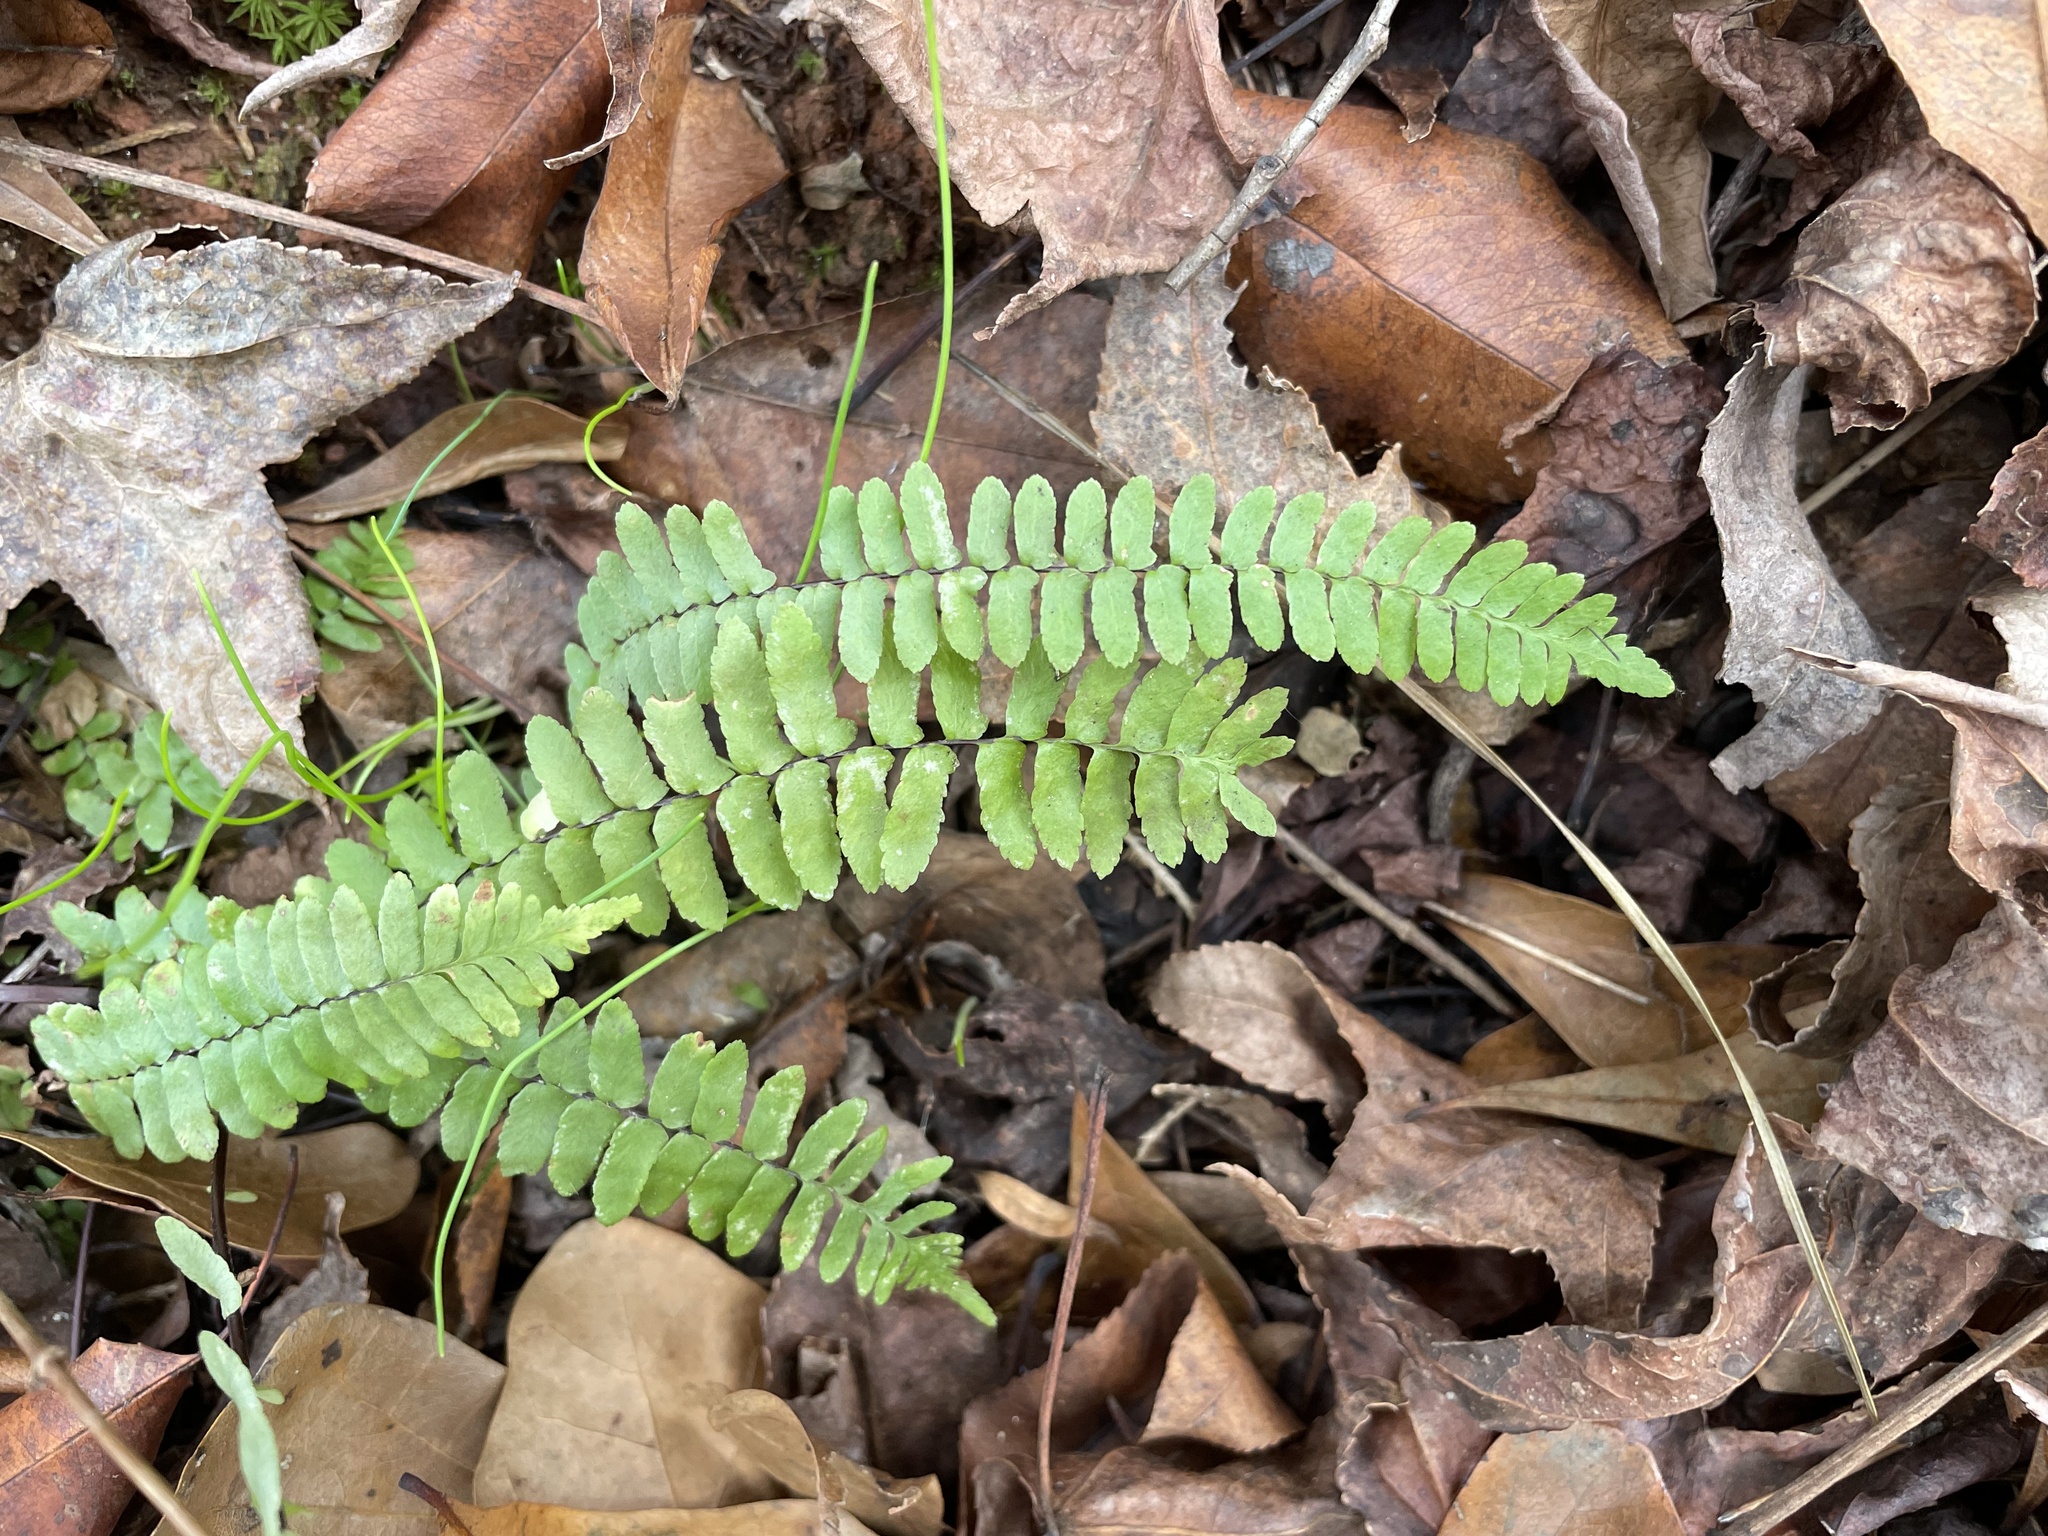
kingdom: Plantae
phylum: Tracheophyta
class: Polypodiopsida
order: Polypodiales
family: Aspleniaceae
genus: Asplenium
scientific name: Asplenium platyneuron
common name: Ebony spleenwort
